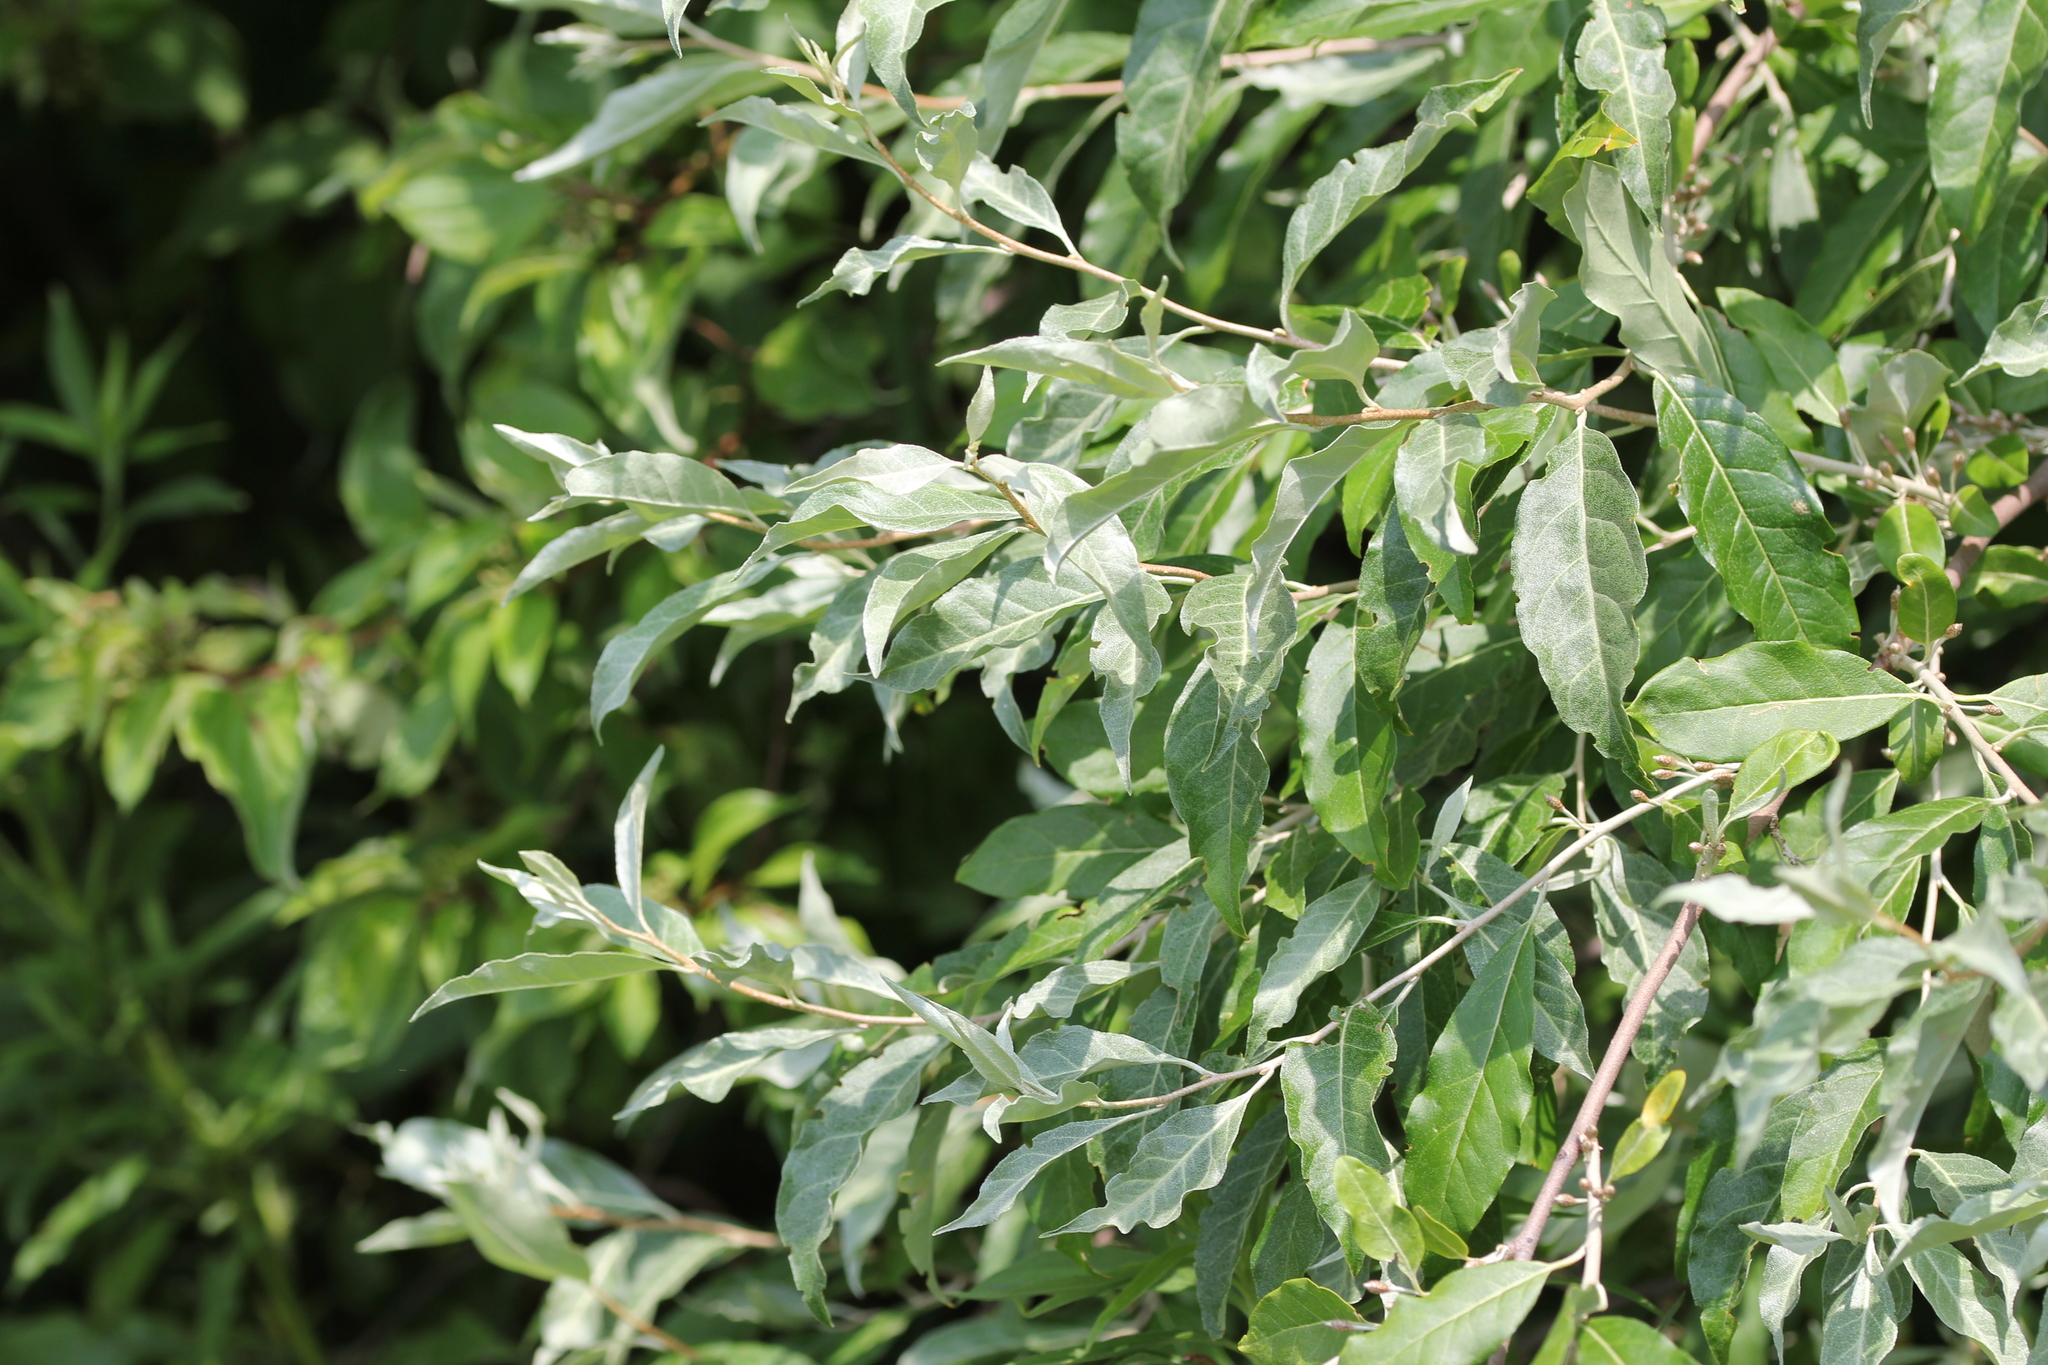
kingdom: Plantae
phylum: Tracheophyta
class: Magnoliopsida
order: Rosales
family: Elaeagnaceae
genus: Elaeagnus
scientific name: Elaeagnus umbellata
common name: Autumn olive
